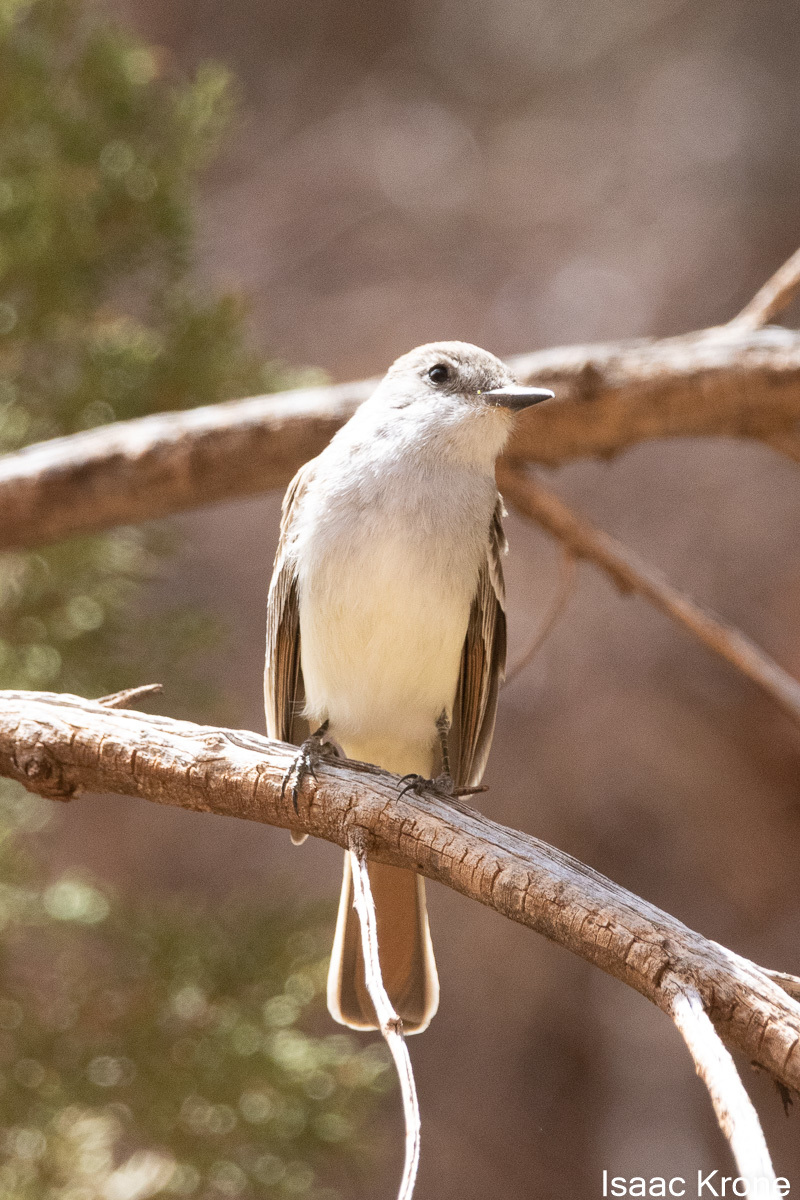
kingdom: Animalia
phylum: Chordata
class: Aves
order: Passeriformes
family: Tyrannidae
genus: Myiarchus
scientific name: Myiarchus cinerascens
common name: Ash-throated flycatcher
